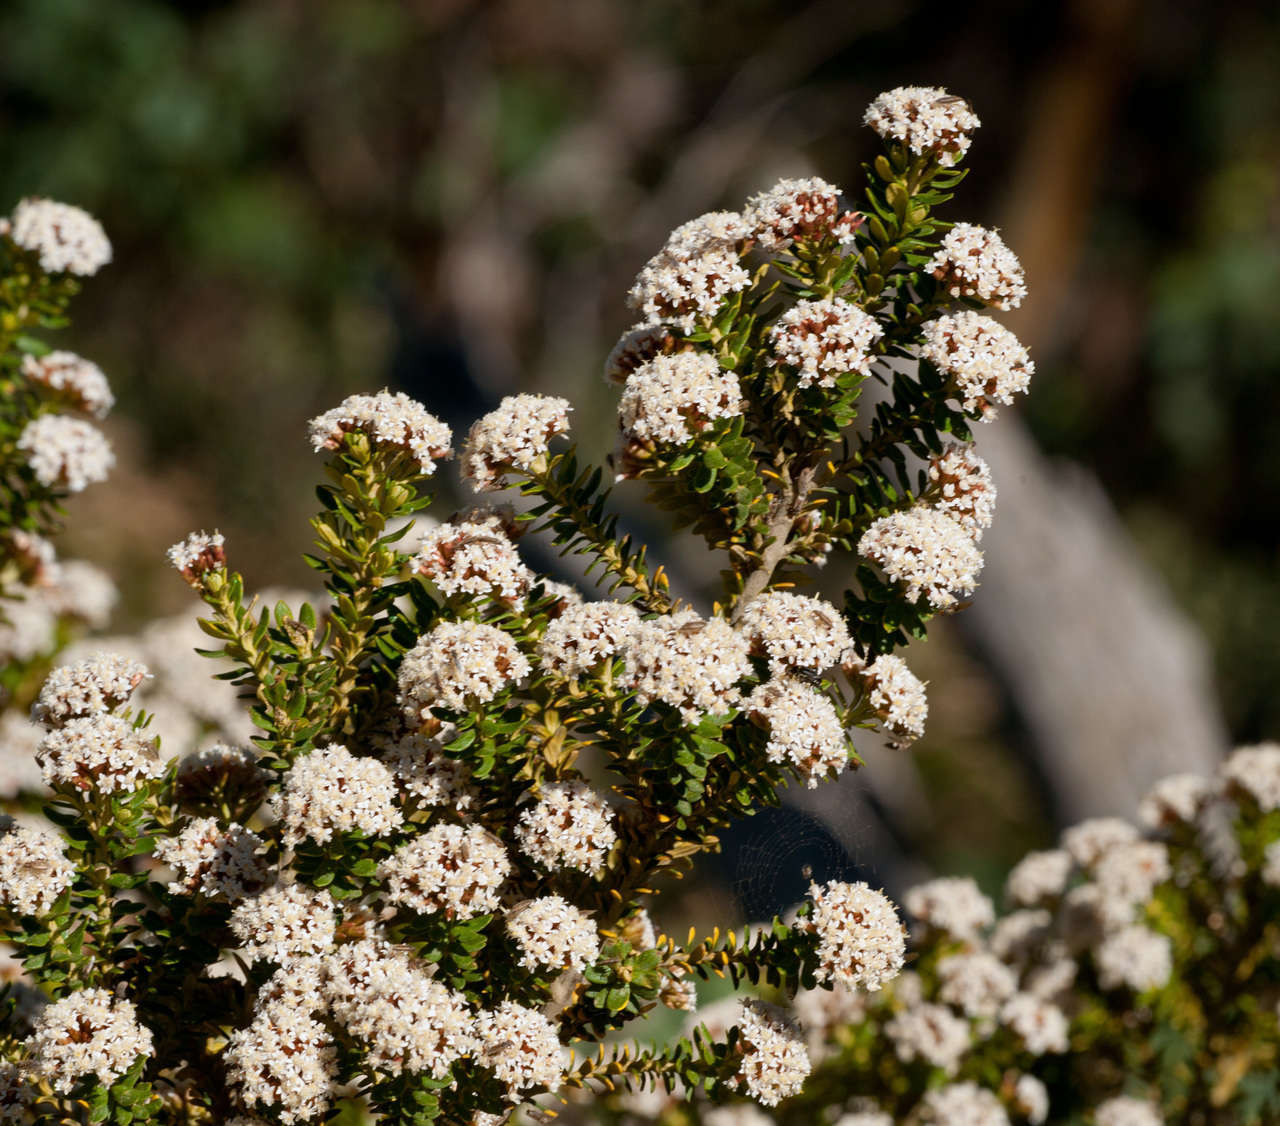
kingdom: Plantae
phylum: Tracheophyta
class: Magnoliopsida
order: Asterales
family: Asteraceae
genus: Ozothamnus
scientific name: Ozothamnus alpinus
